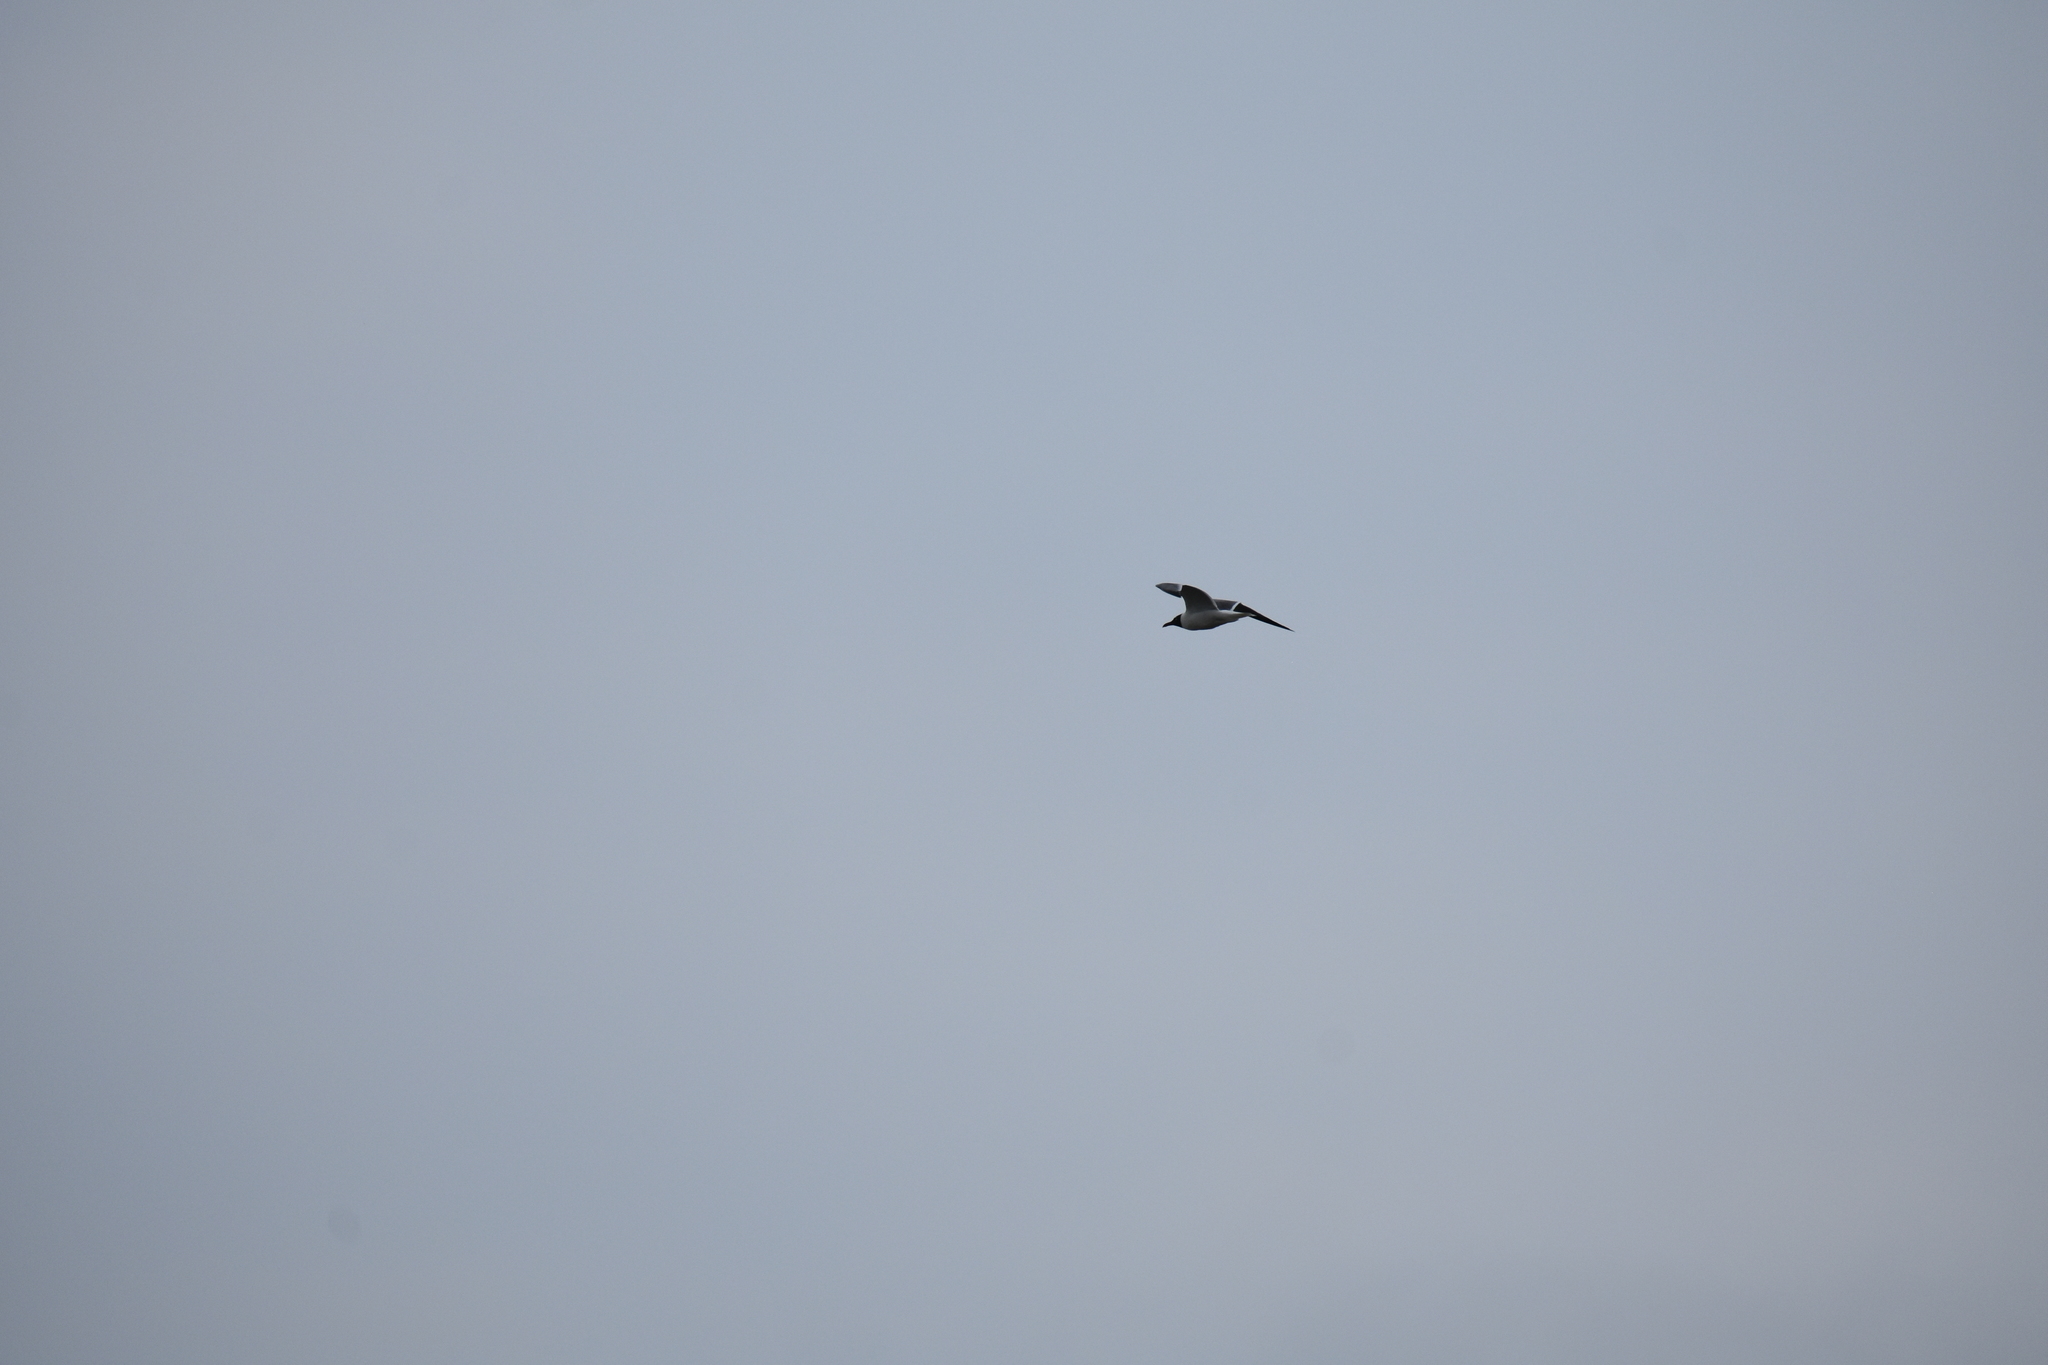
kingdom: Animalia
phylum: Chordata
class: Aves
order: Charadriiformes
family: Laridae
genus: Leucophaeus
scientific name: Leucophaeus atricilla
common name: Laughing gull
